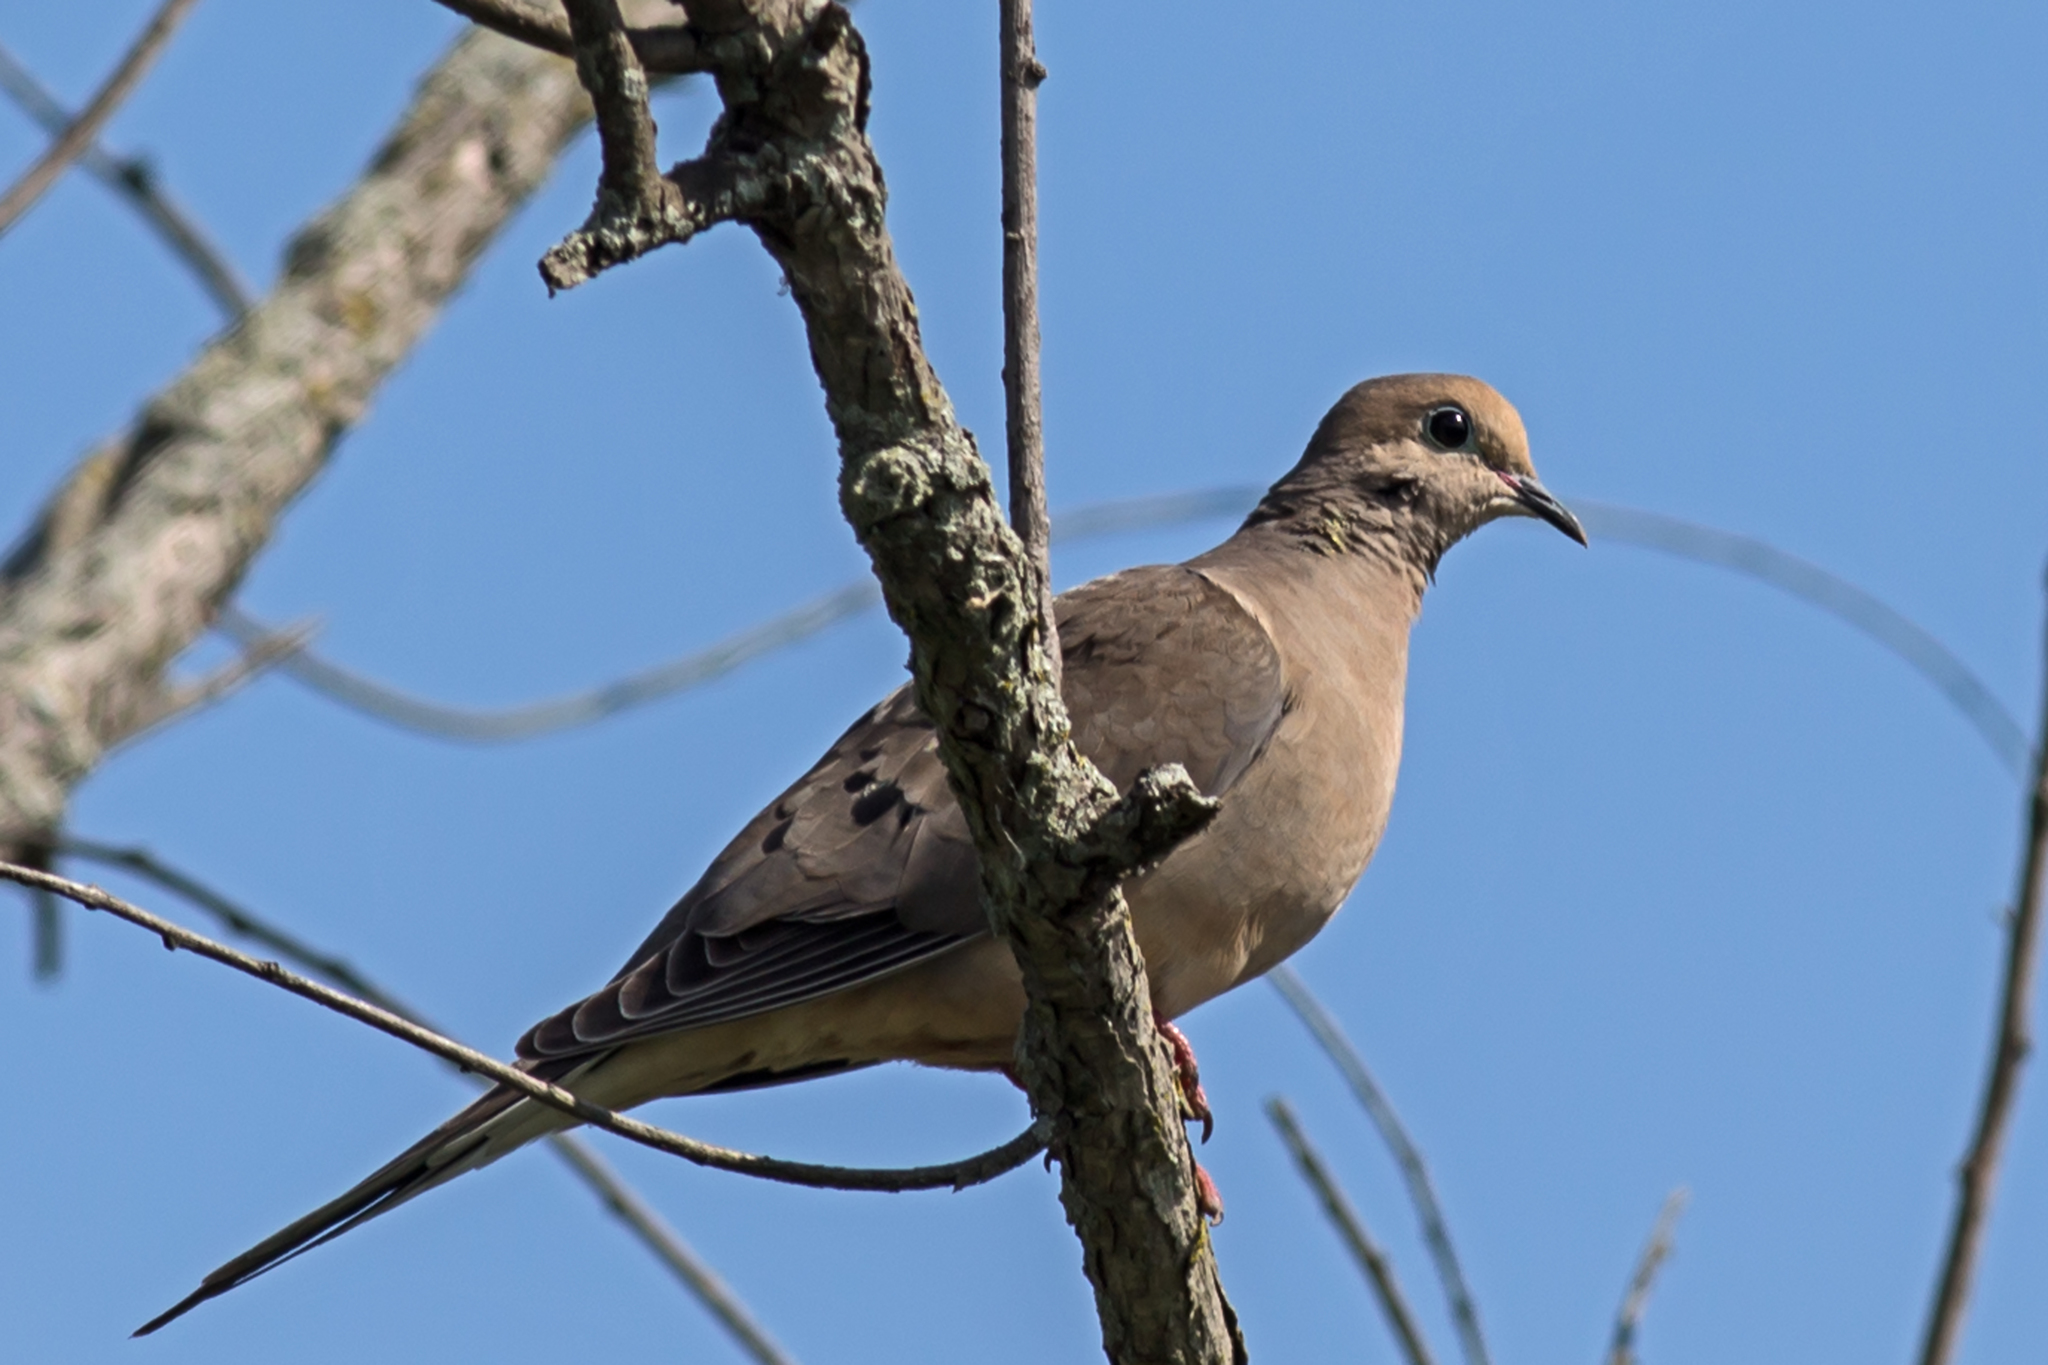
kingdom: Animalia
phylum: Chordata
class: Aves
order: Columbiformes
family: Columbidae
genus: Zenaida
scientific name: Zenaida macroura
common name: Mourning dove
